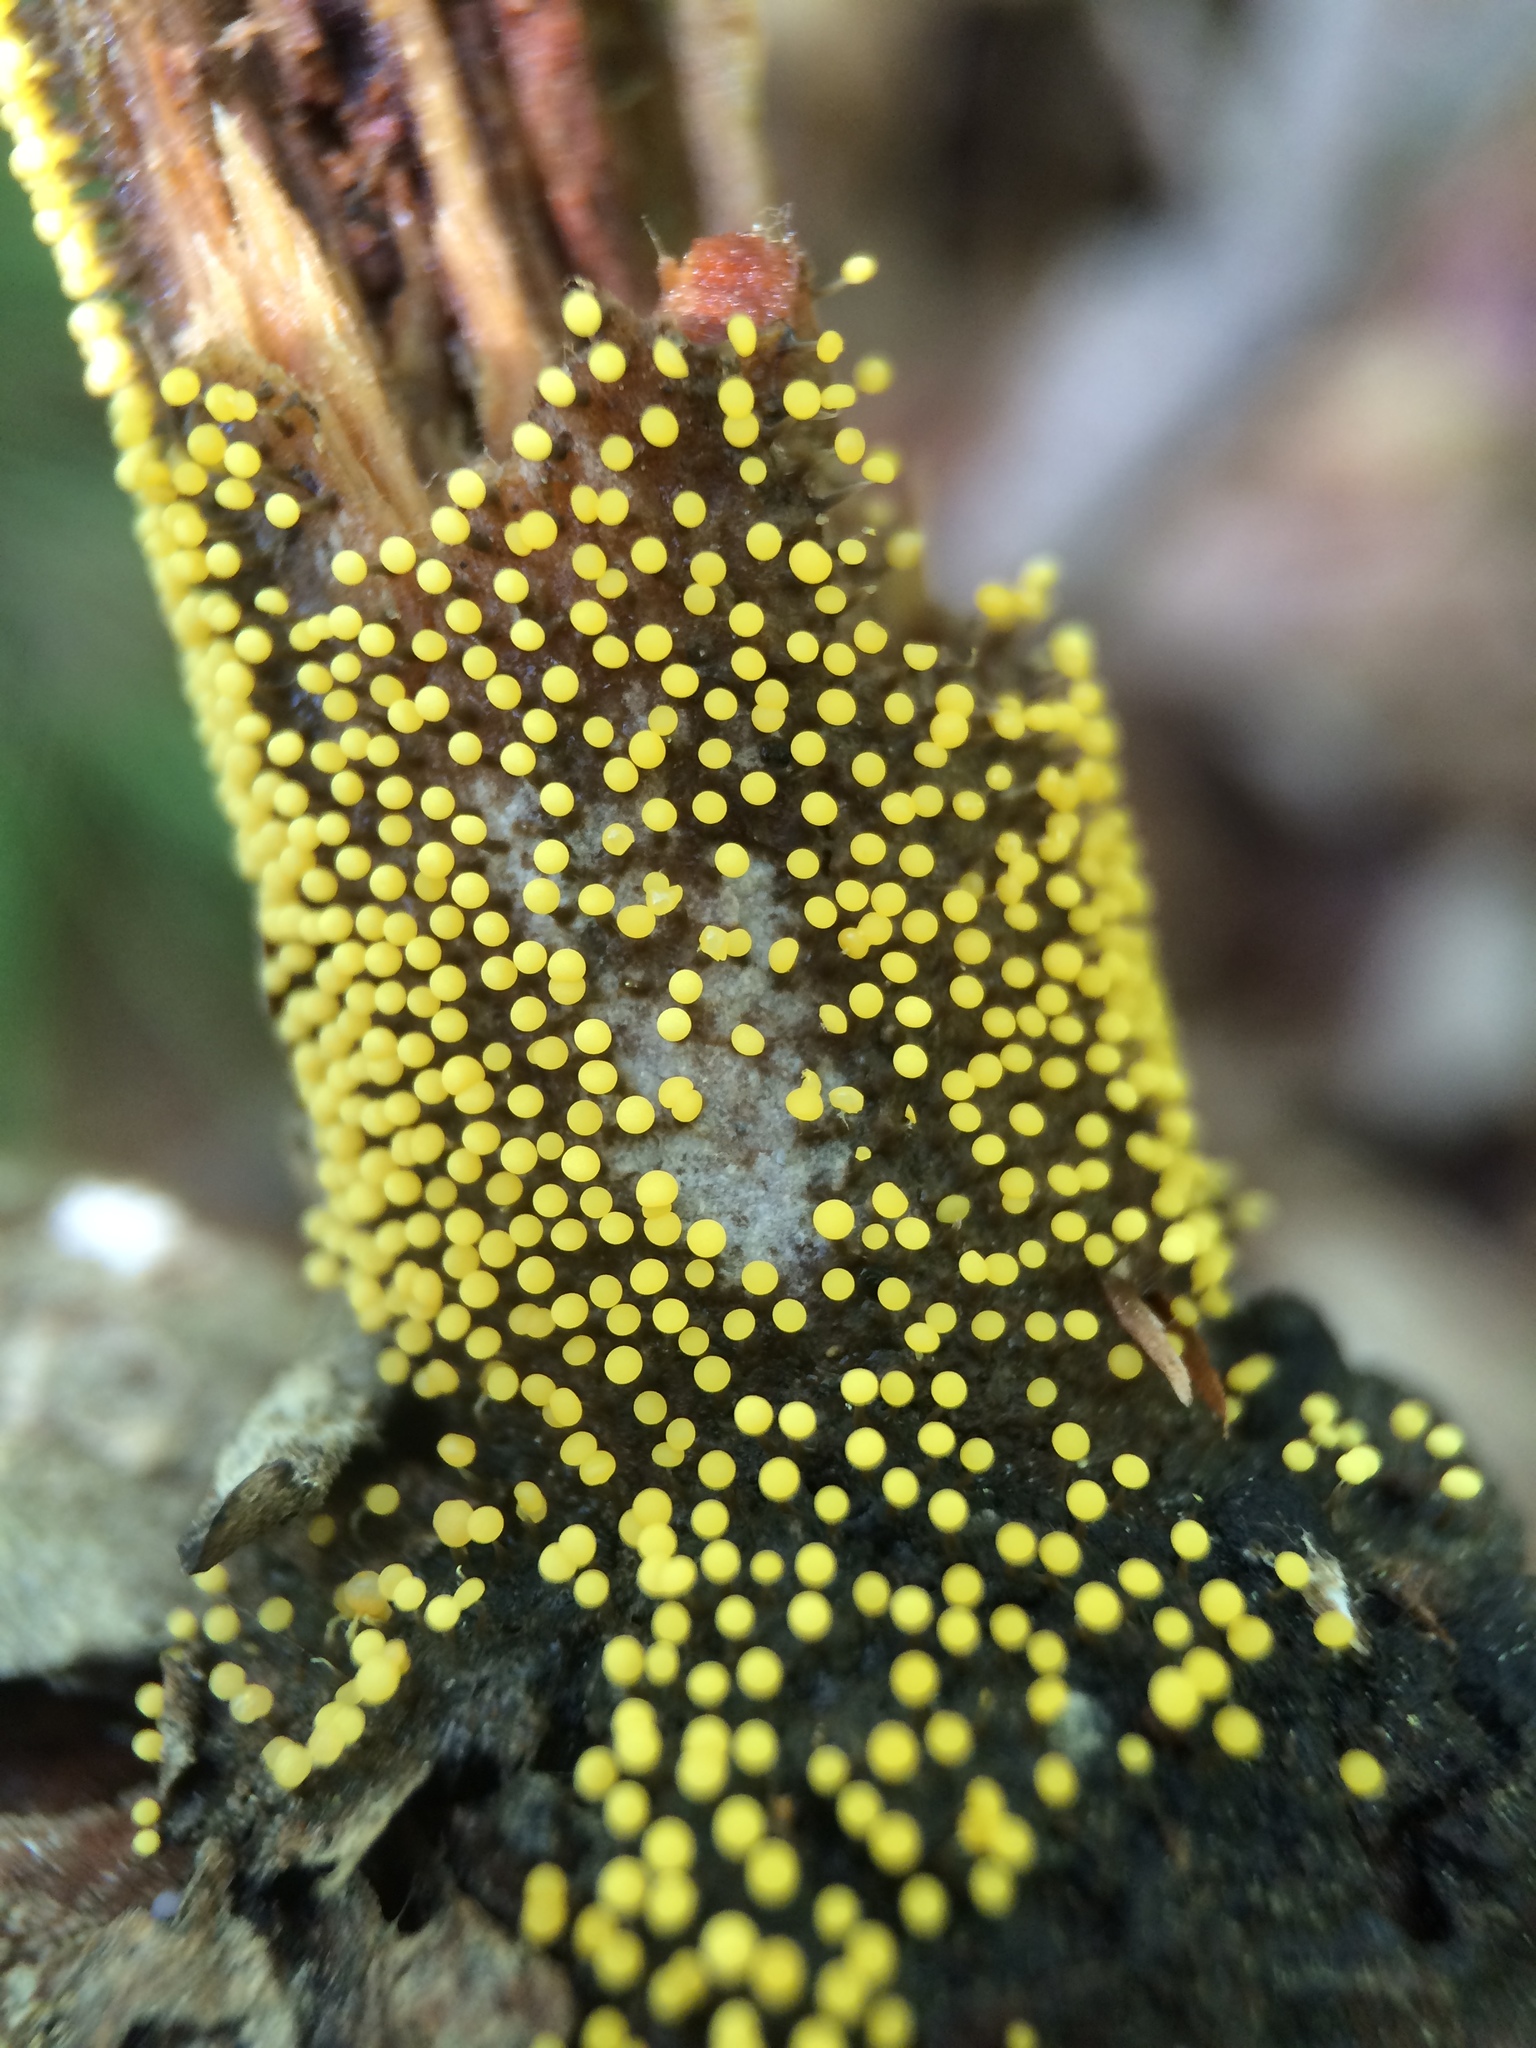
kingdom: Protozoa
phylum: Mycetozoa
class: Myxomycetes
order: Physarales
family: Physaraceae
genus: Physarum
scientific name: Physarum viride
